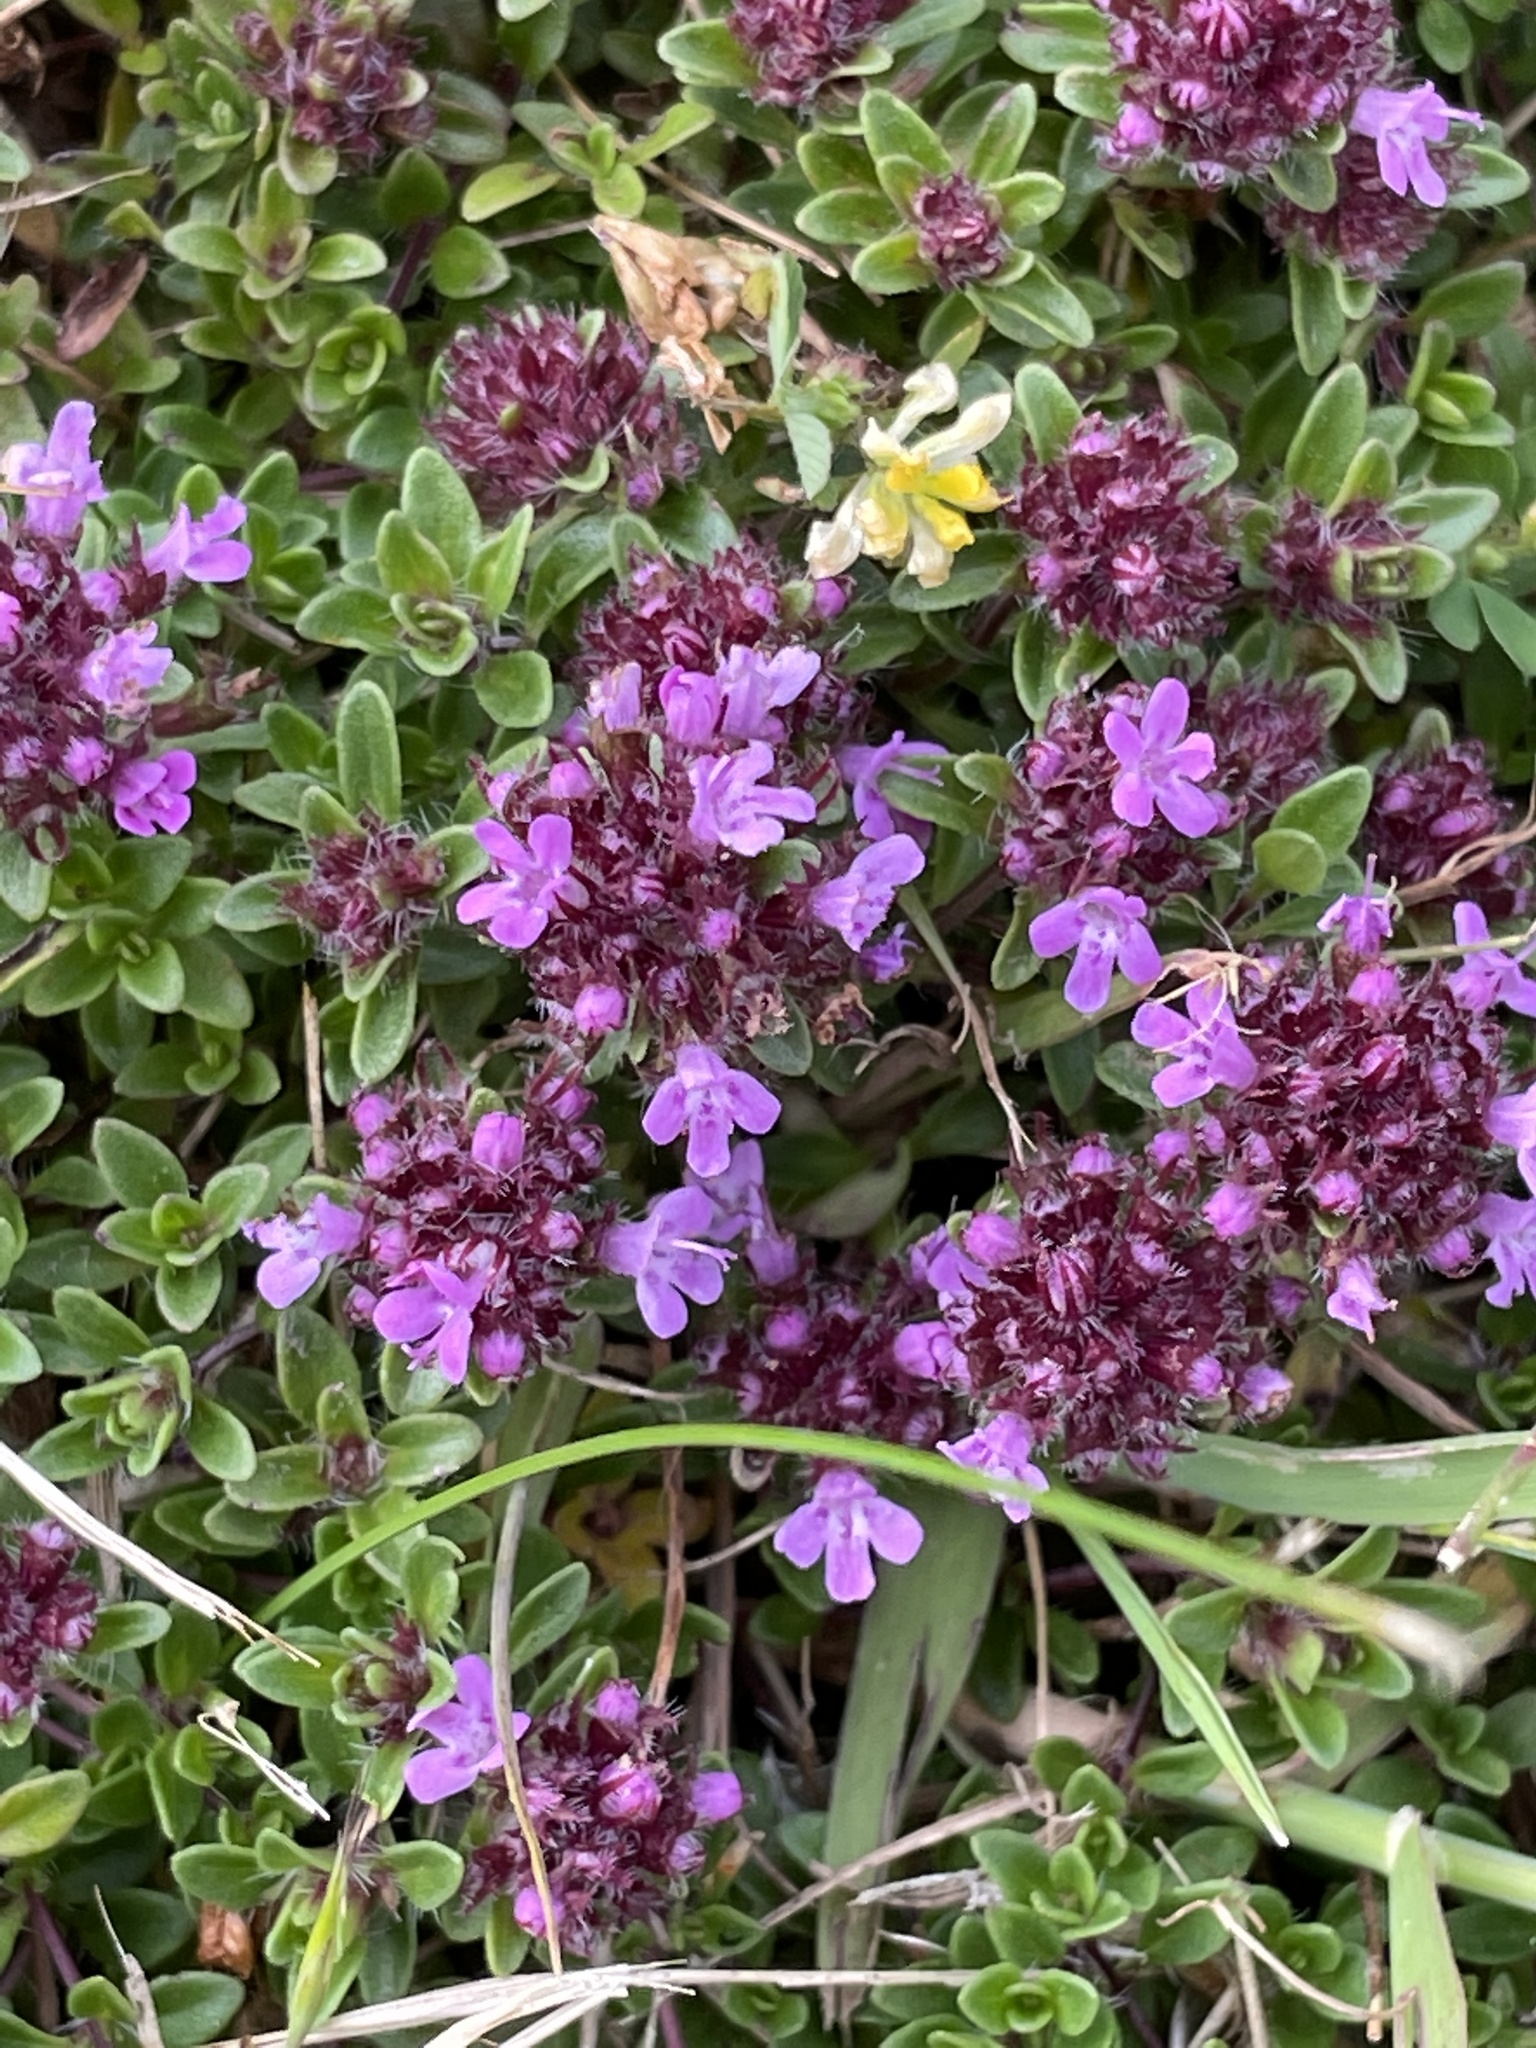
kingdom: Plantae
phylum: Tracheophyta
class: Magnoliopsida
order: Lamiales
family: Lamiaceae
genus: Thymus
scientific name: Thymus praecox
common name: Wild thyme
